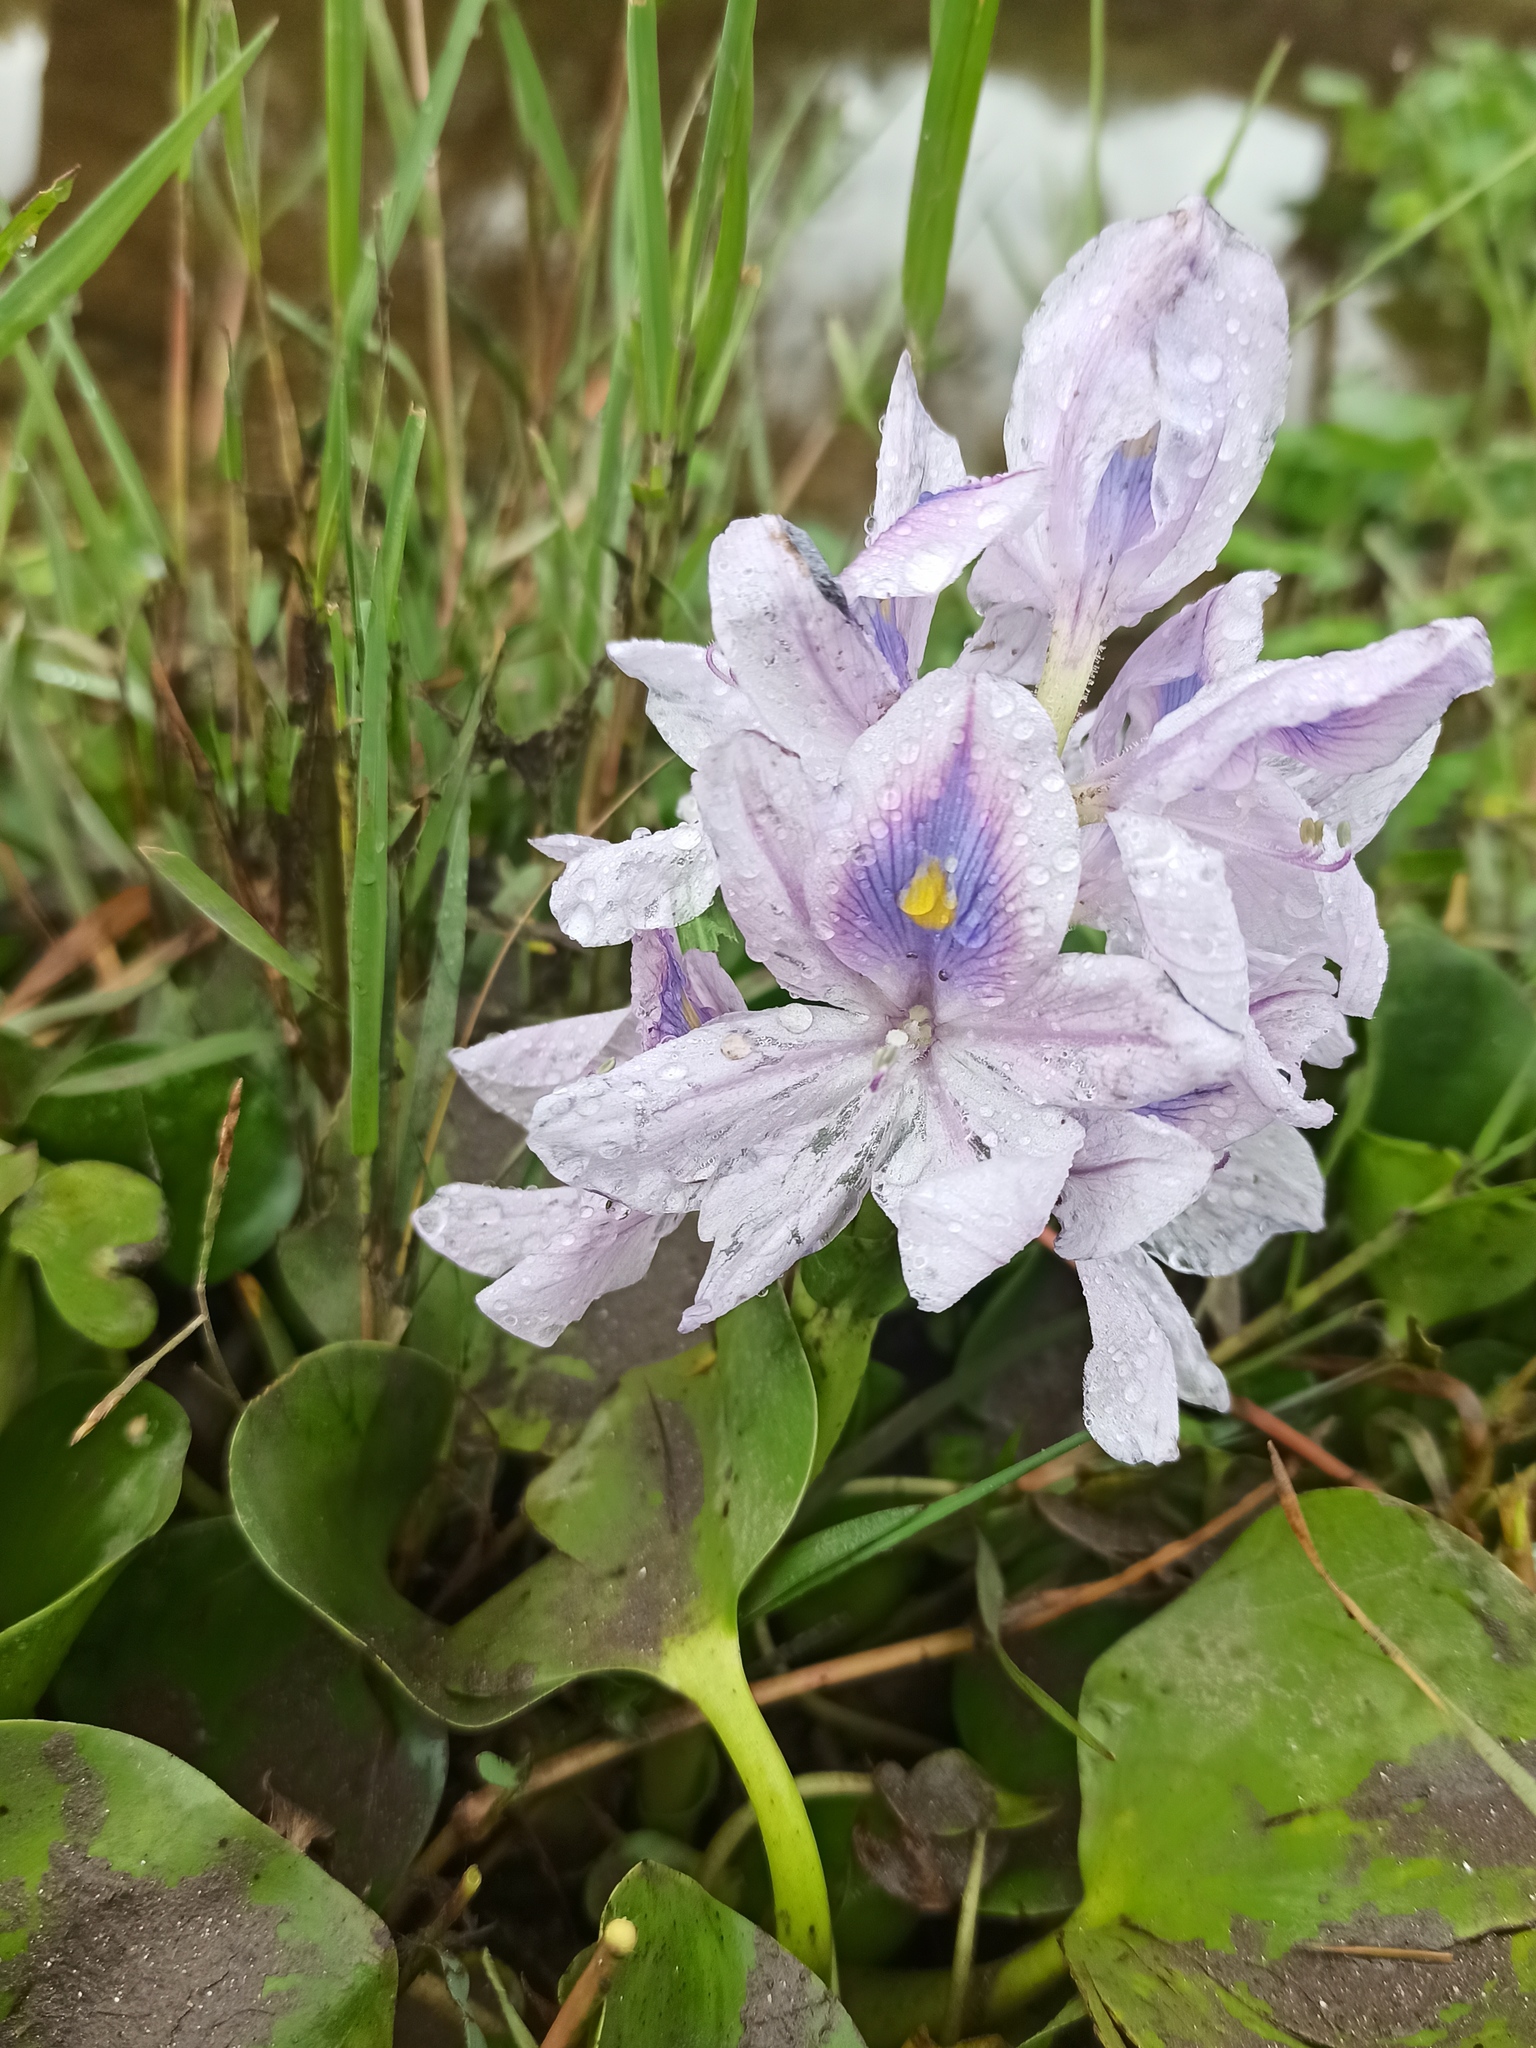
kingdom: Plantae
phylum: Tracheophyta
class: Liliopsida
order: Commelinales
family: Pontederiaceae
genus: Pontederia
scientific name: Pontederia crassipes
